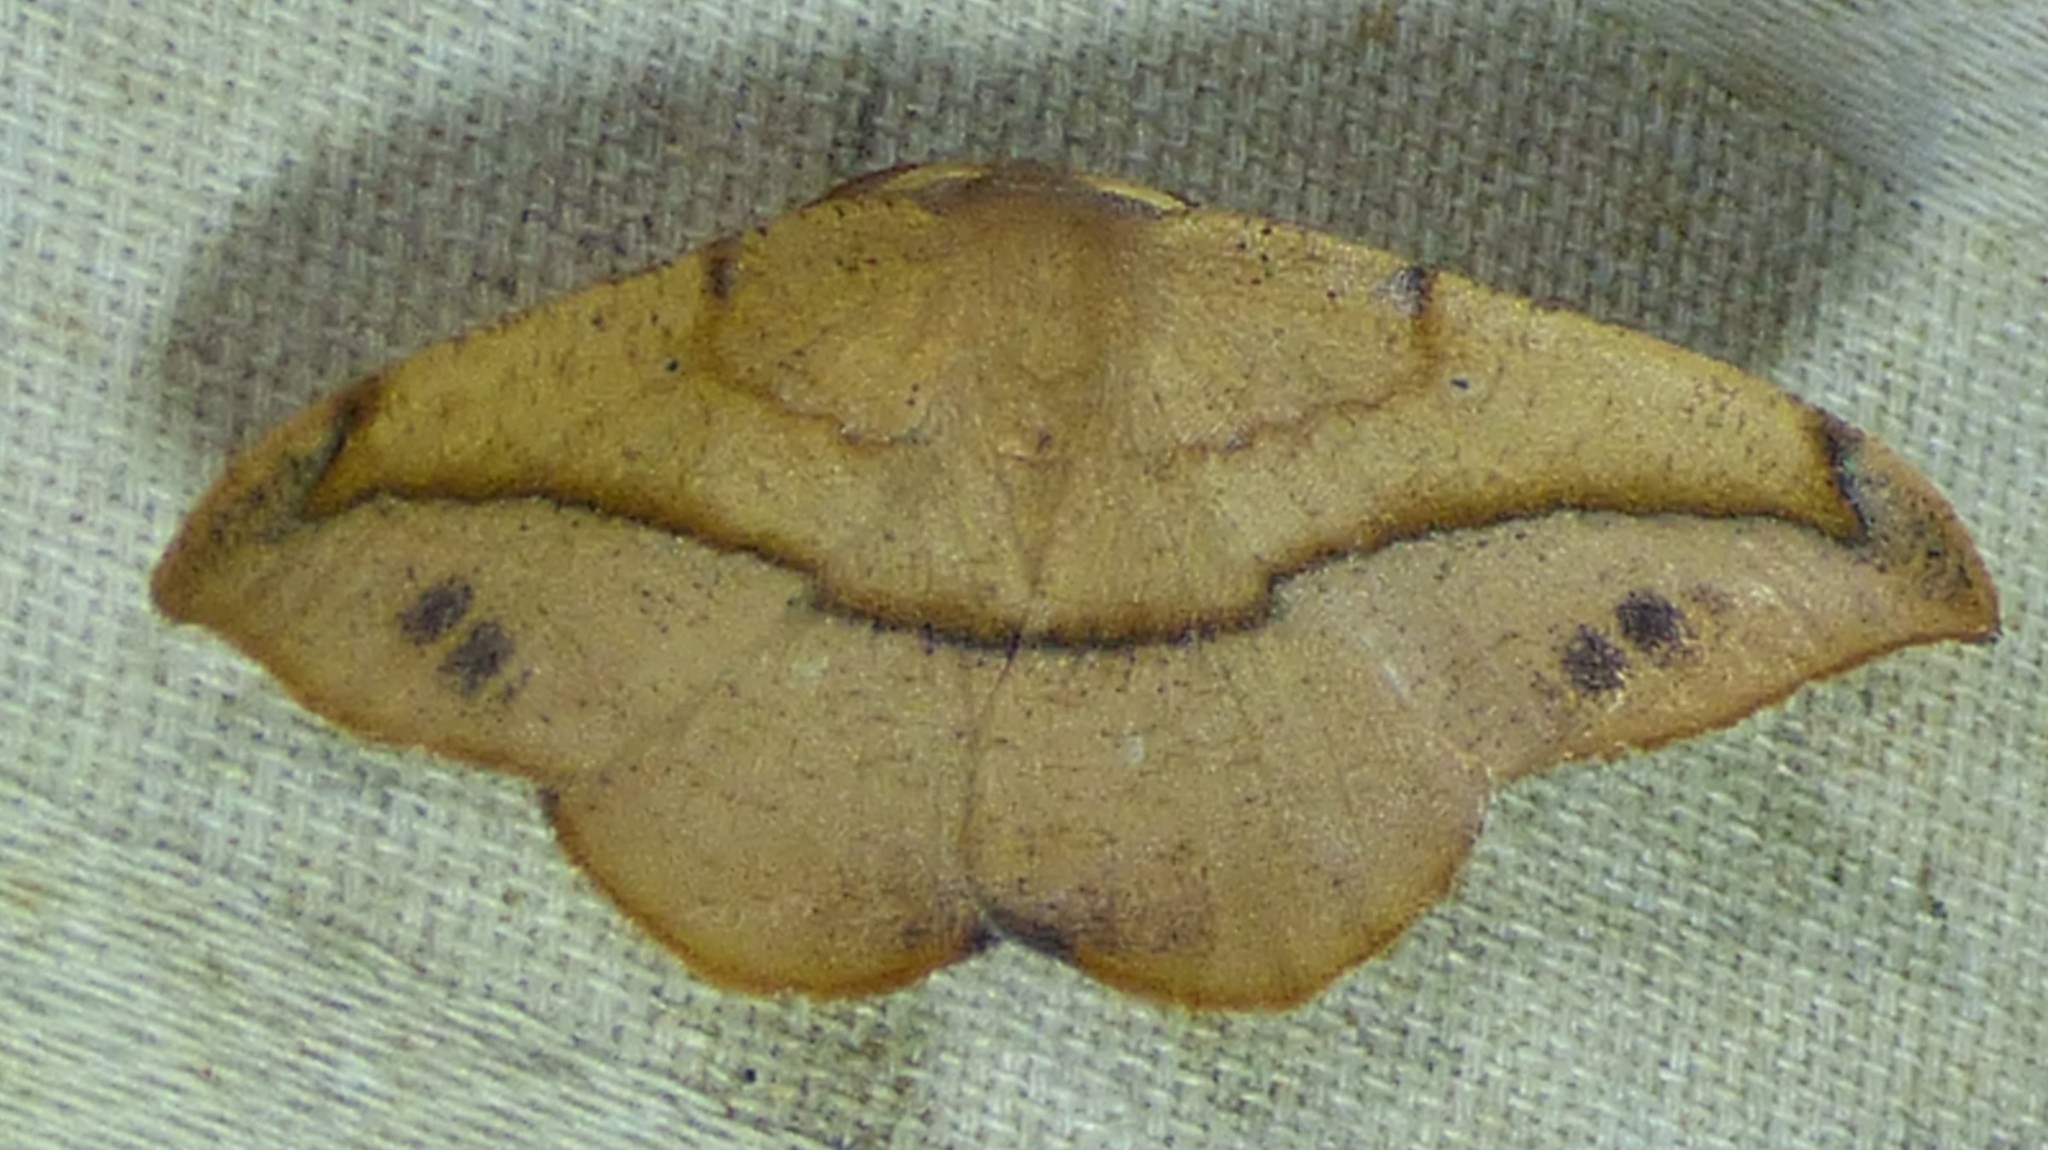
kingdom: Animalia
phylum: Arthropoda
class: Insecta
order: Lepidoptera
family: Geometridae
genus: Patalene
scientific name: Patalene olyzonaria
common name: Juniper geometer moth
